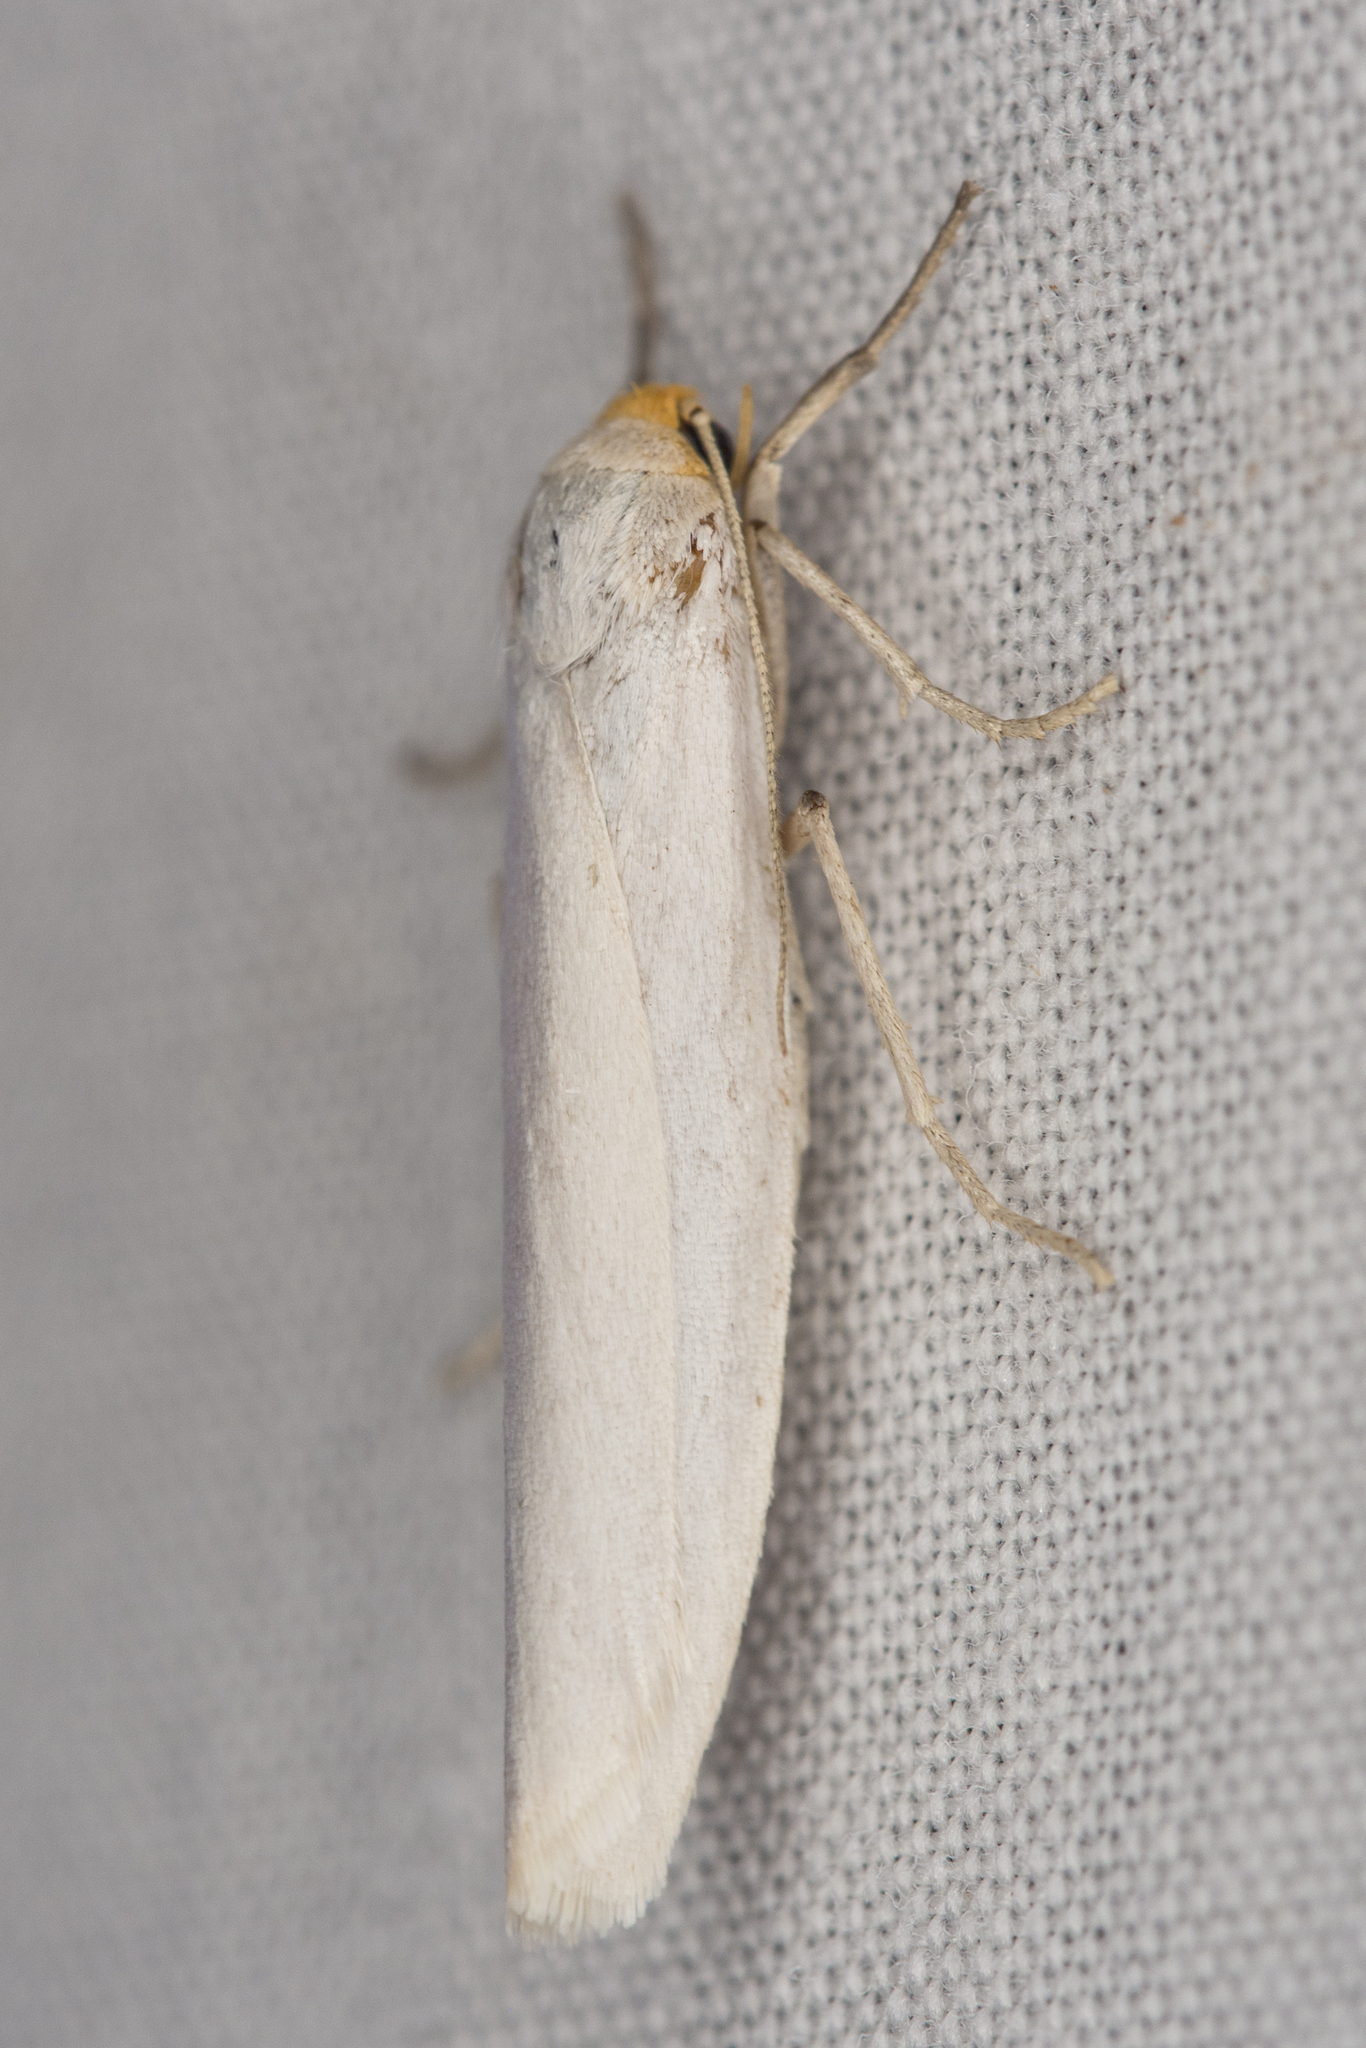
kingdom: Animalia
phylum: Arthropoda
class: Insecta
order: Lepidoptera
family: Erebidae
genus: Crambidia
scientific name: Crambidia cephalica
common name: Yellow-headed lichen moth
